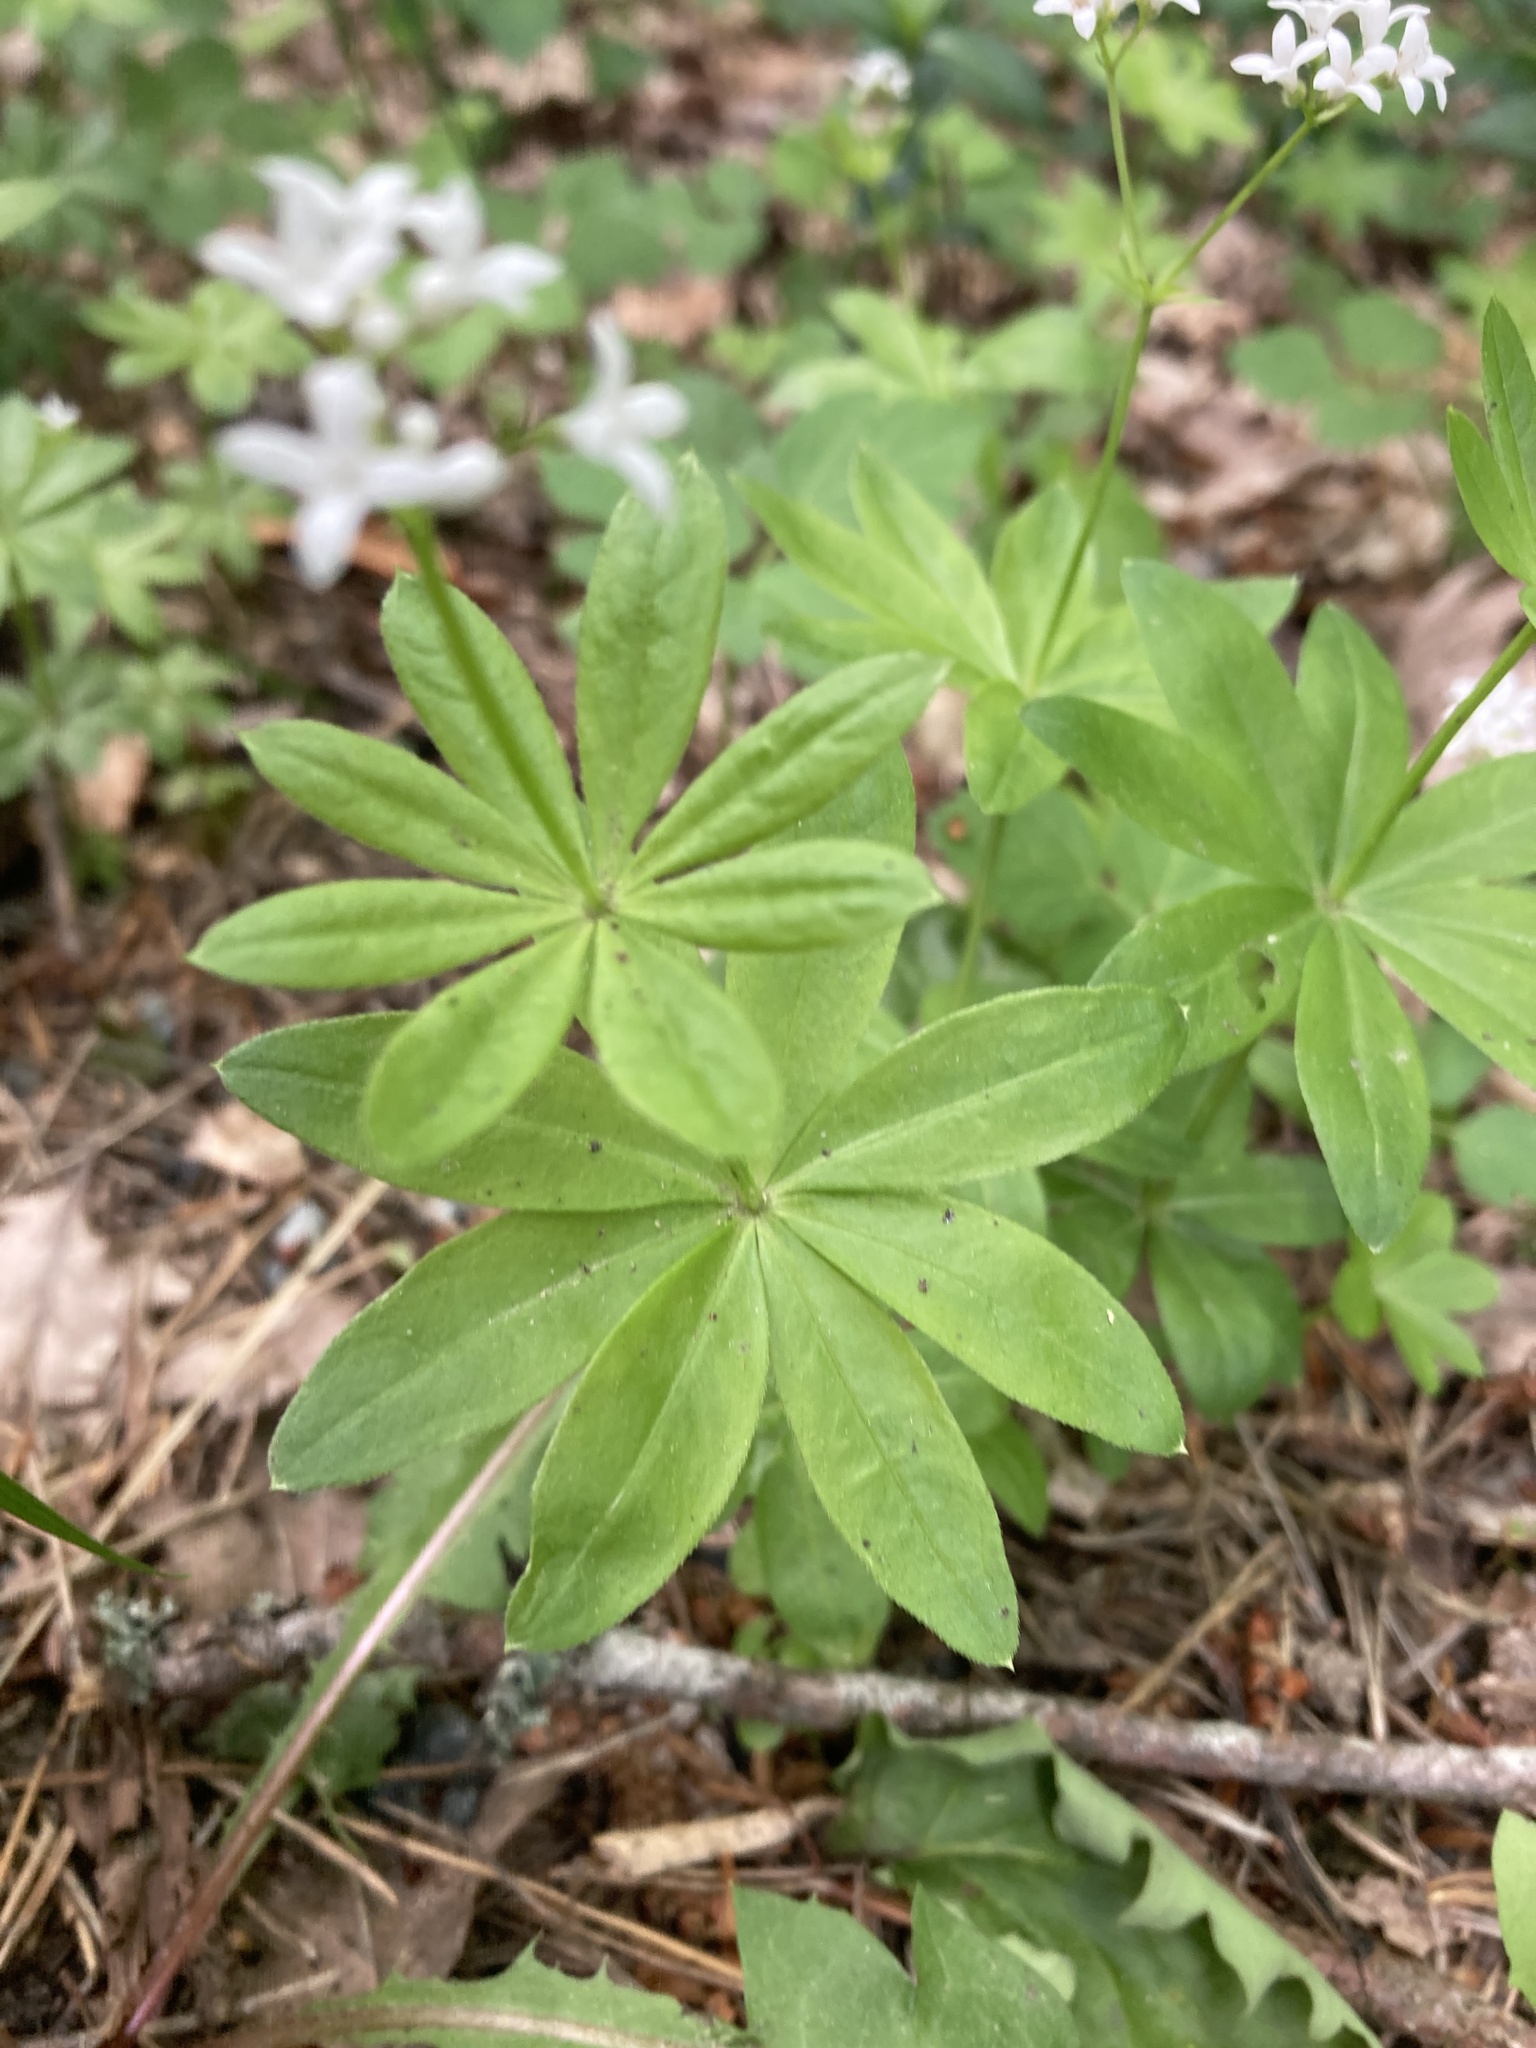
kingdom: Plantae
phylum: Tracheophyta
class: Magnoliopsida
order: Gentianales
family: Rubiaceae
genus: Galium
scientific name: Galium odoratum
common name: Sweet woodruff
